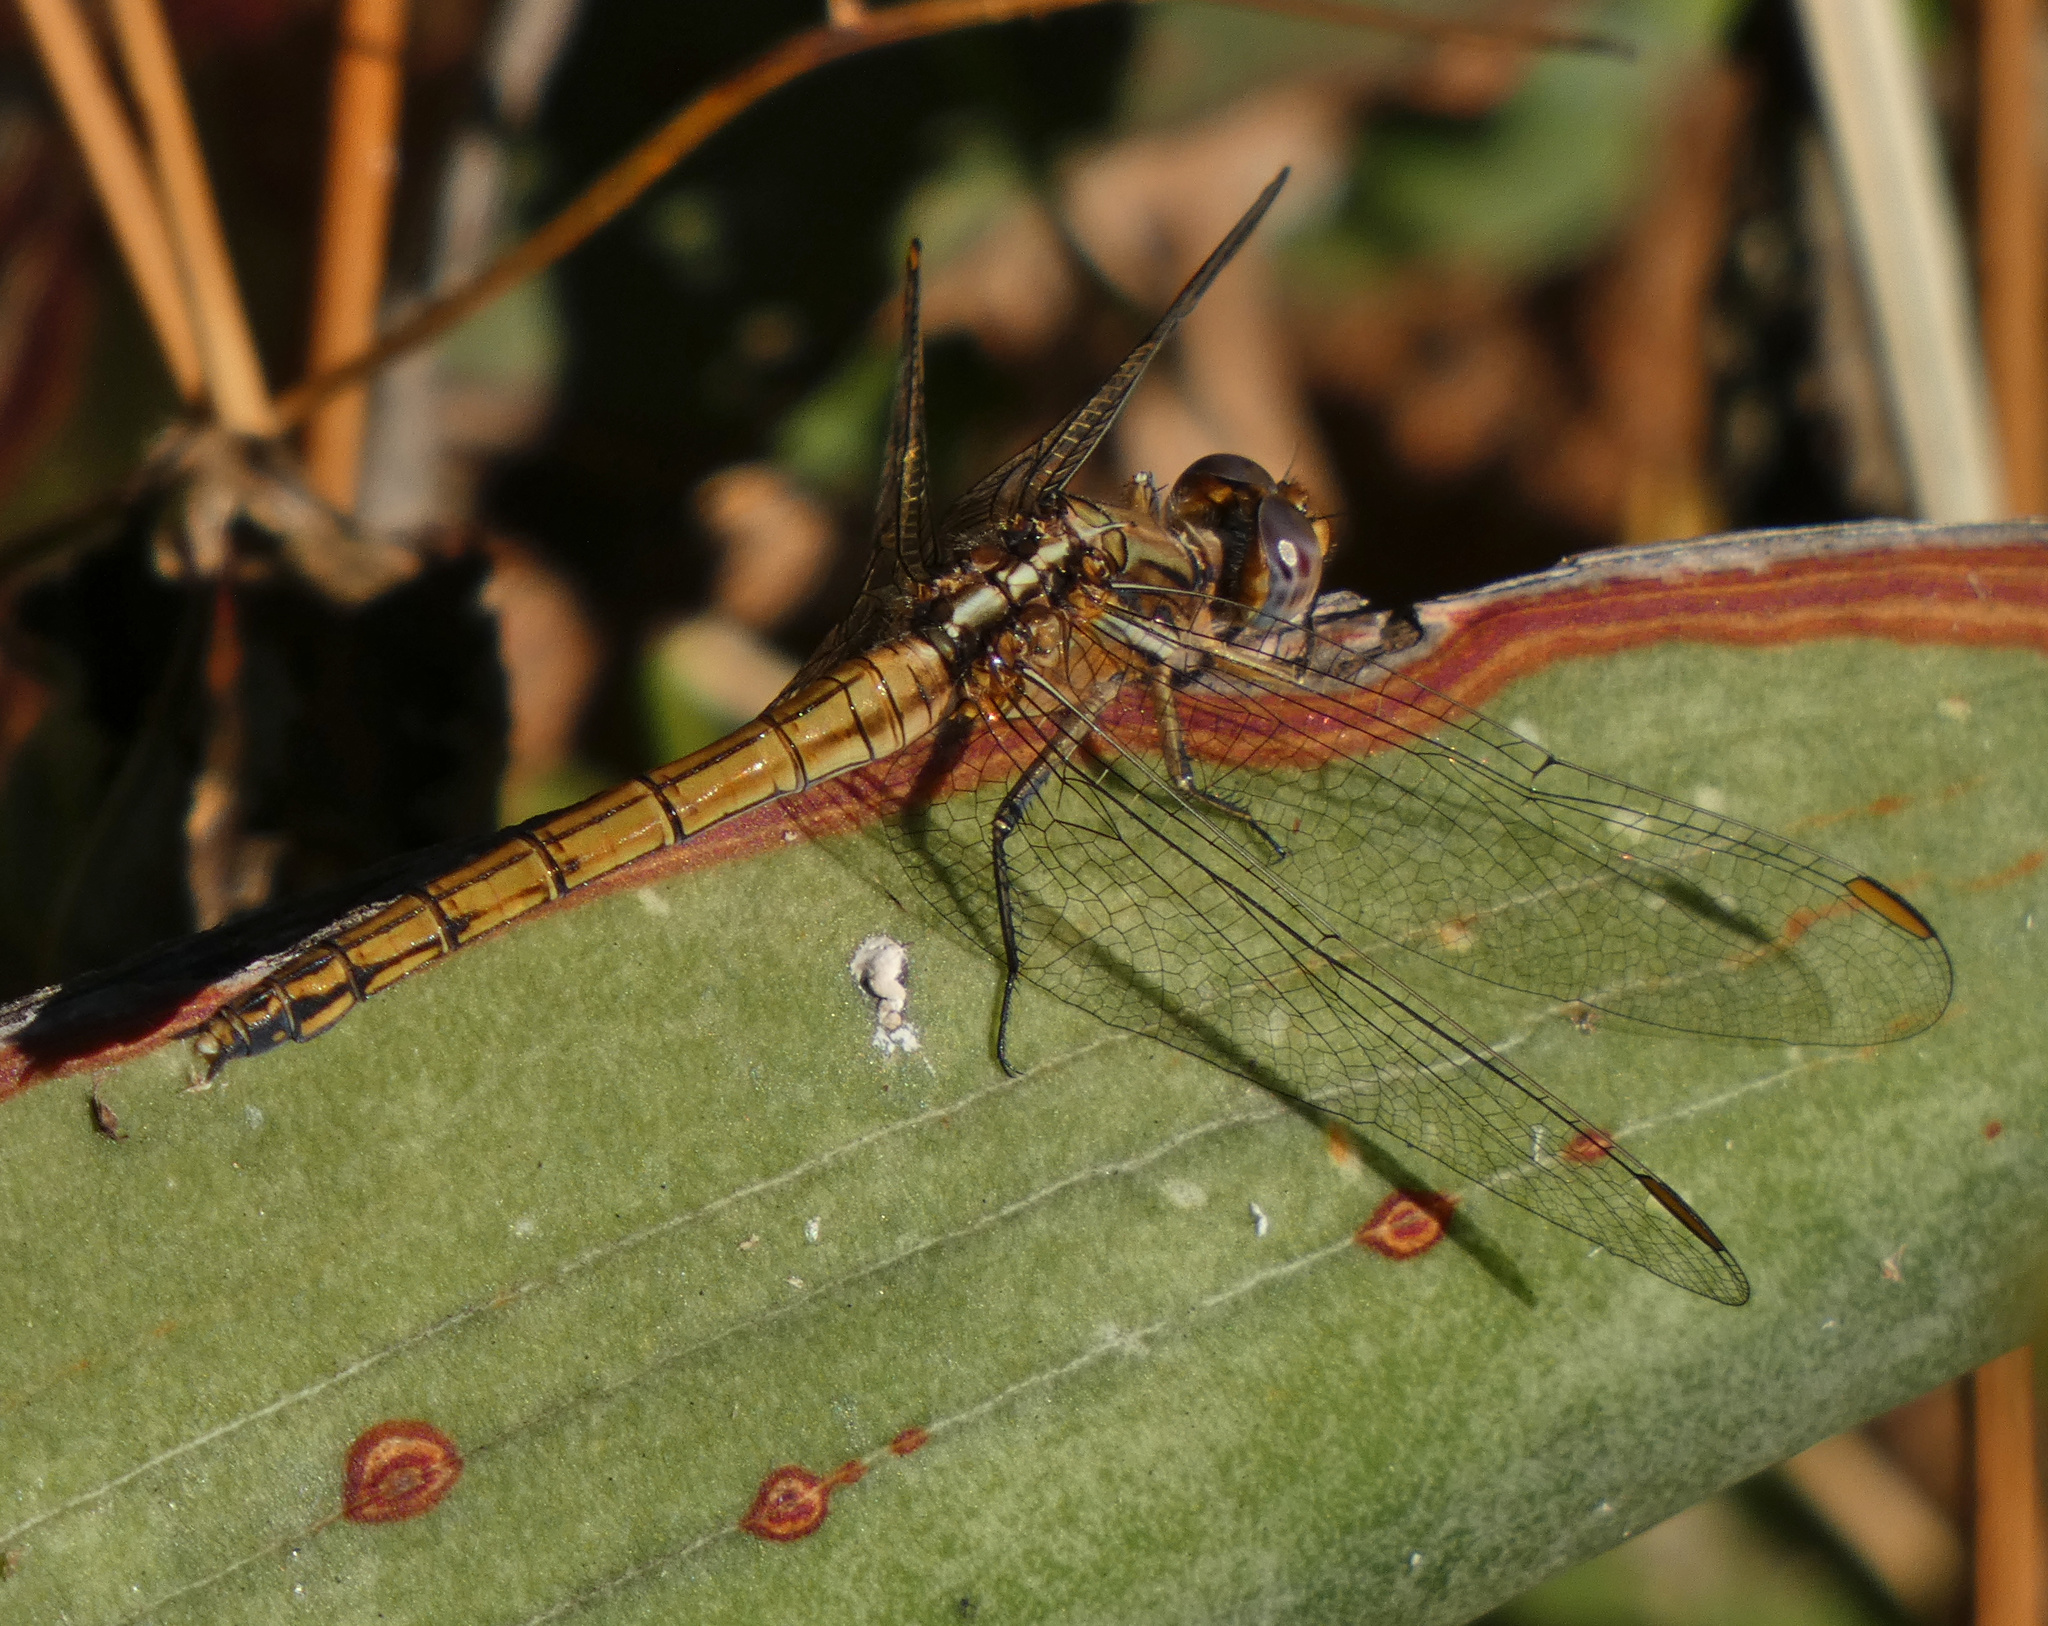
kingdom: Animalia
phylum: Arthropoda
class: Insecta
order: Odonata
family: Libellulidae
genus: Orthetrum
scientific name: Orthetrum chrysostigma
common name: Epaulet skimmer
